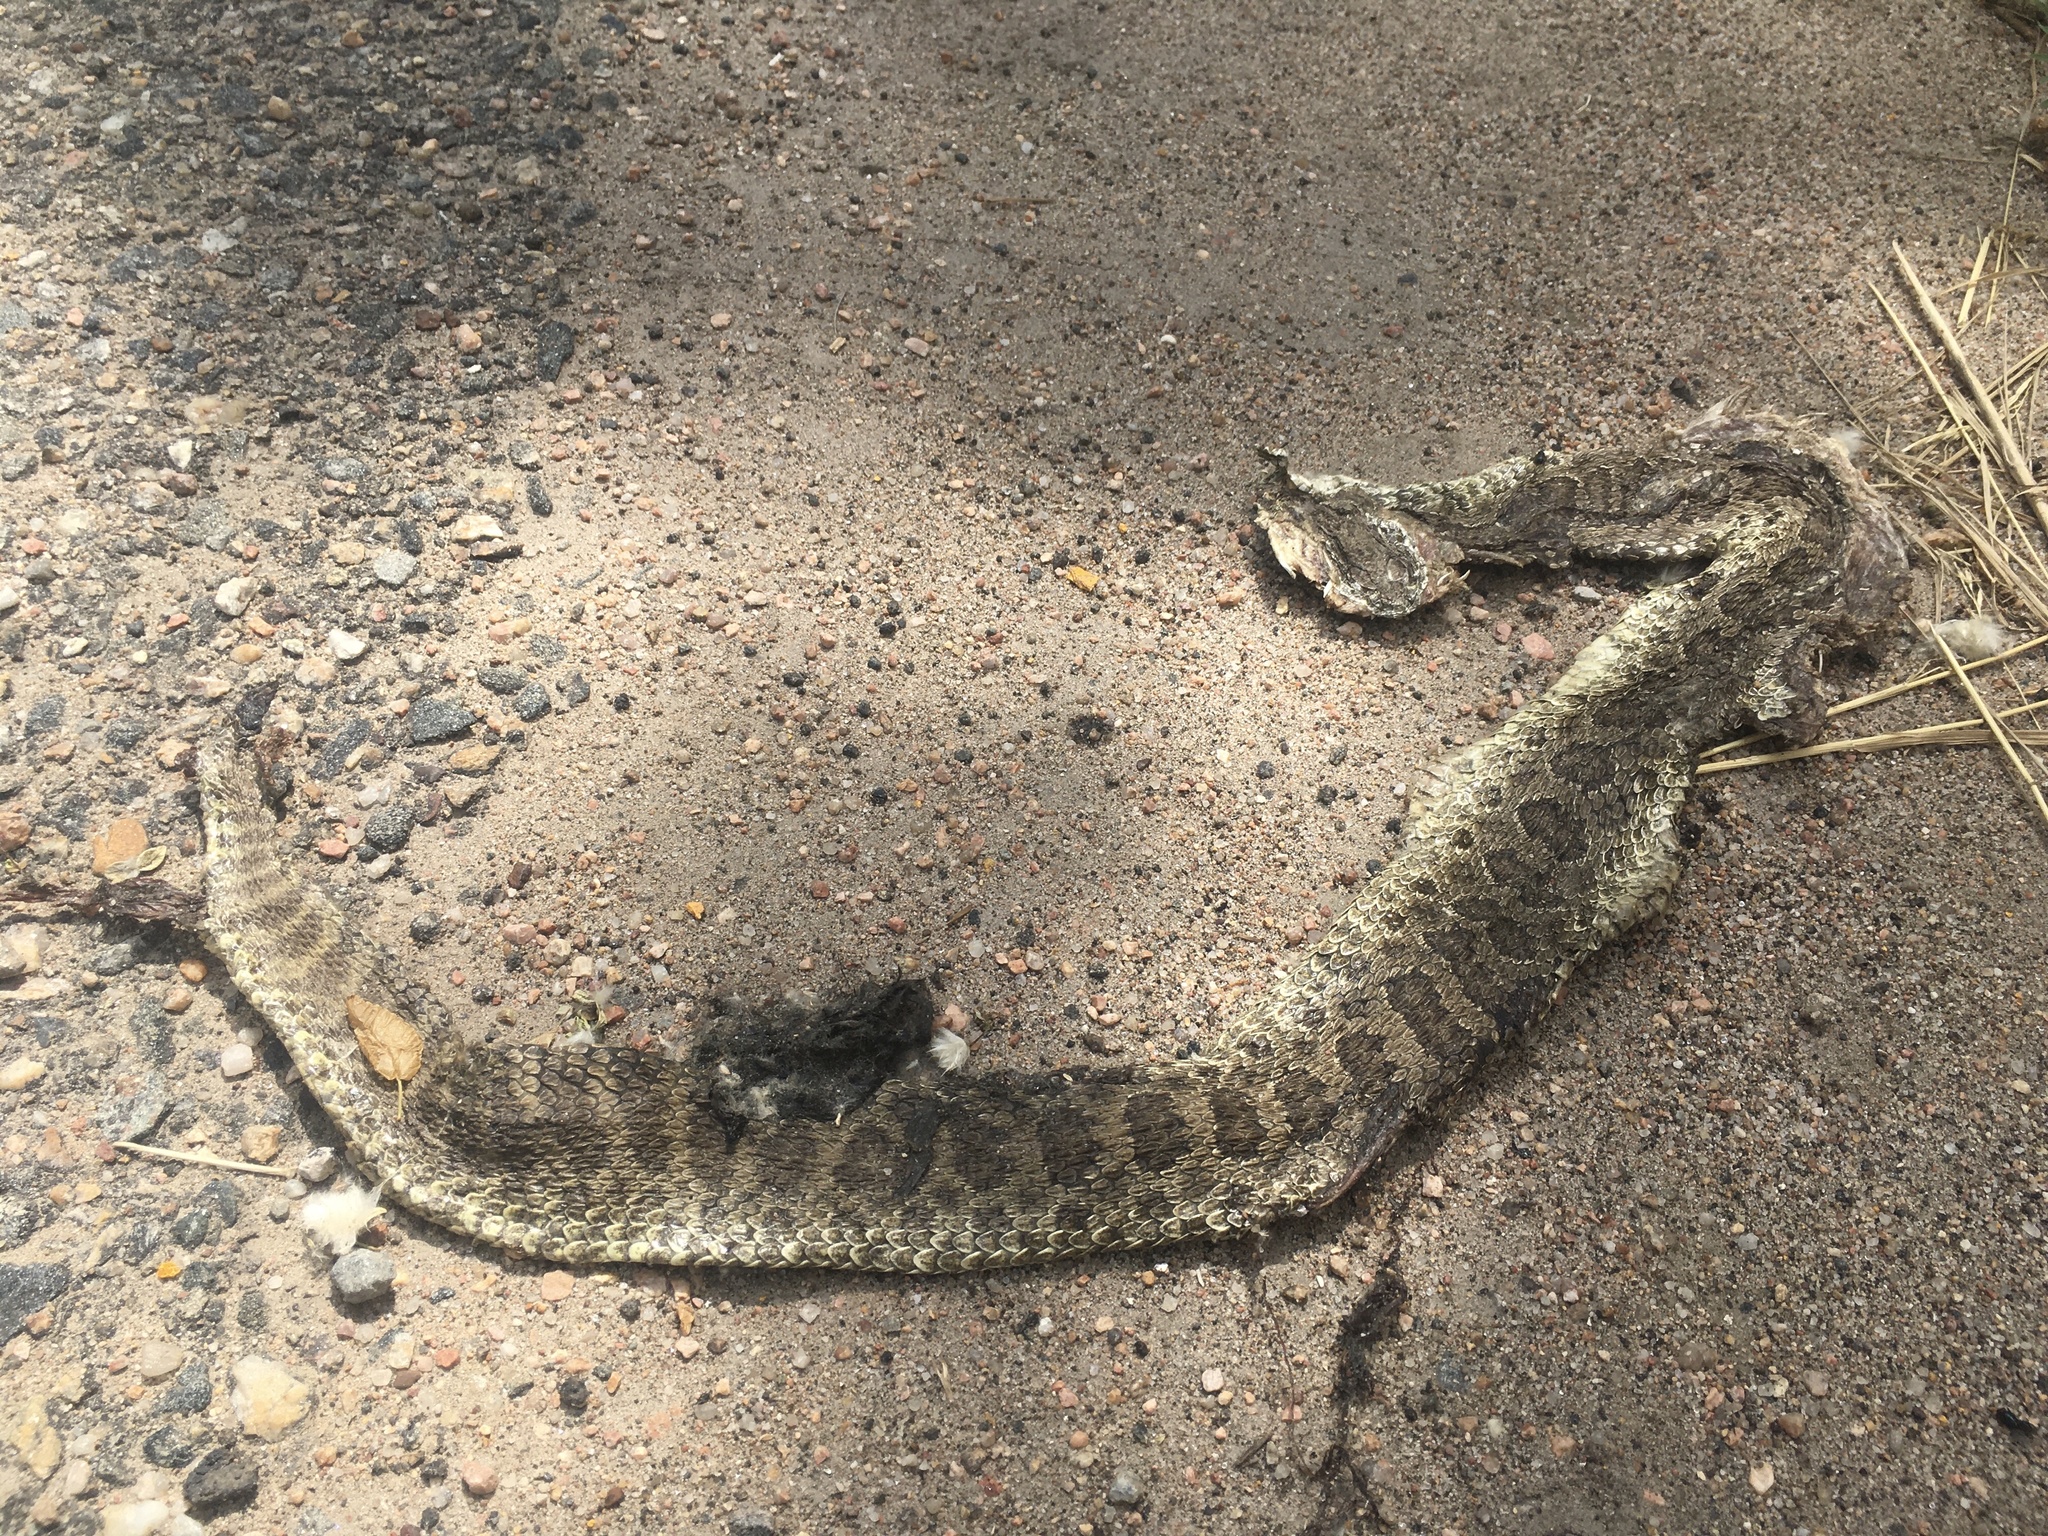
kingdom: Animalia
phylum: Chordata
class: Squamata
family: Viperidae
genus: Crotalus
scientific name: Crotalus viridis
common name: Prairie rattlesnake
